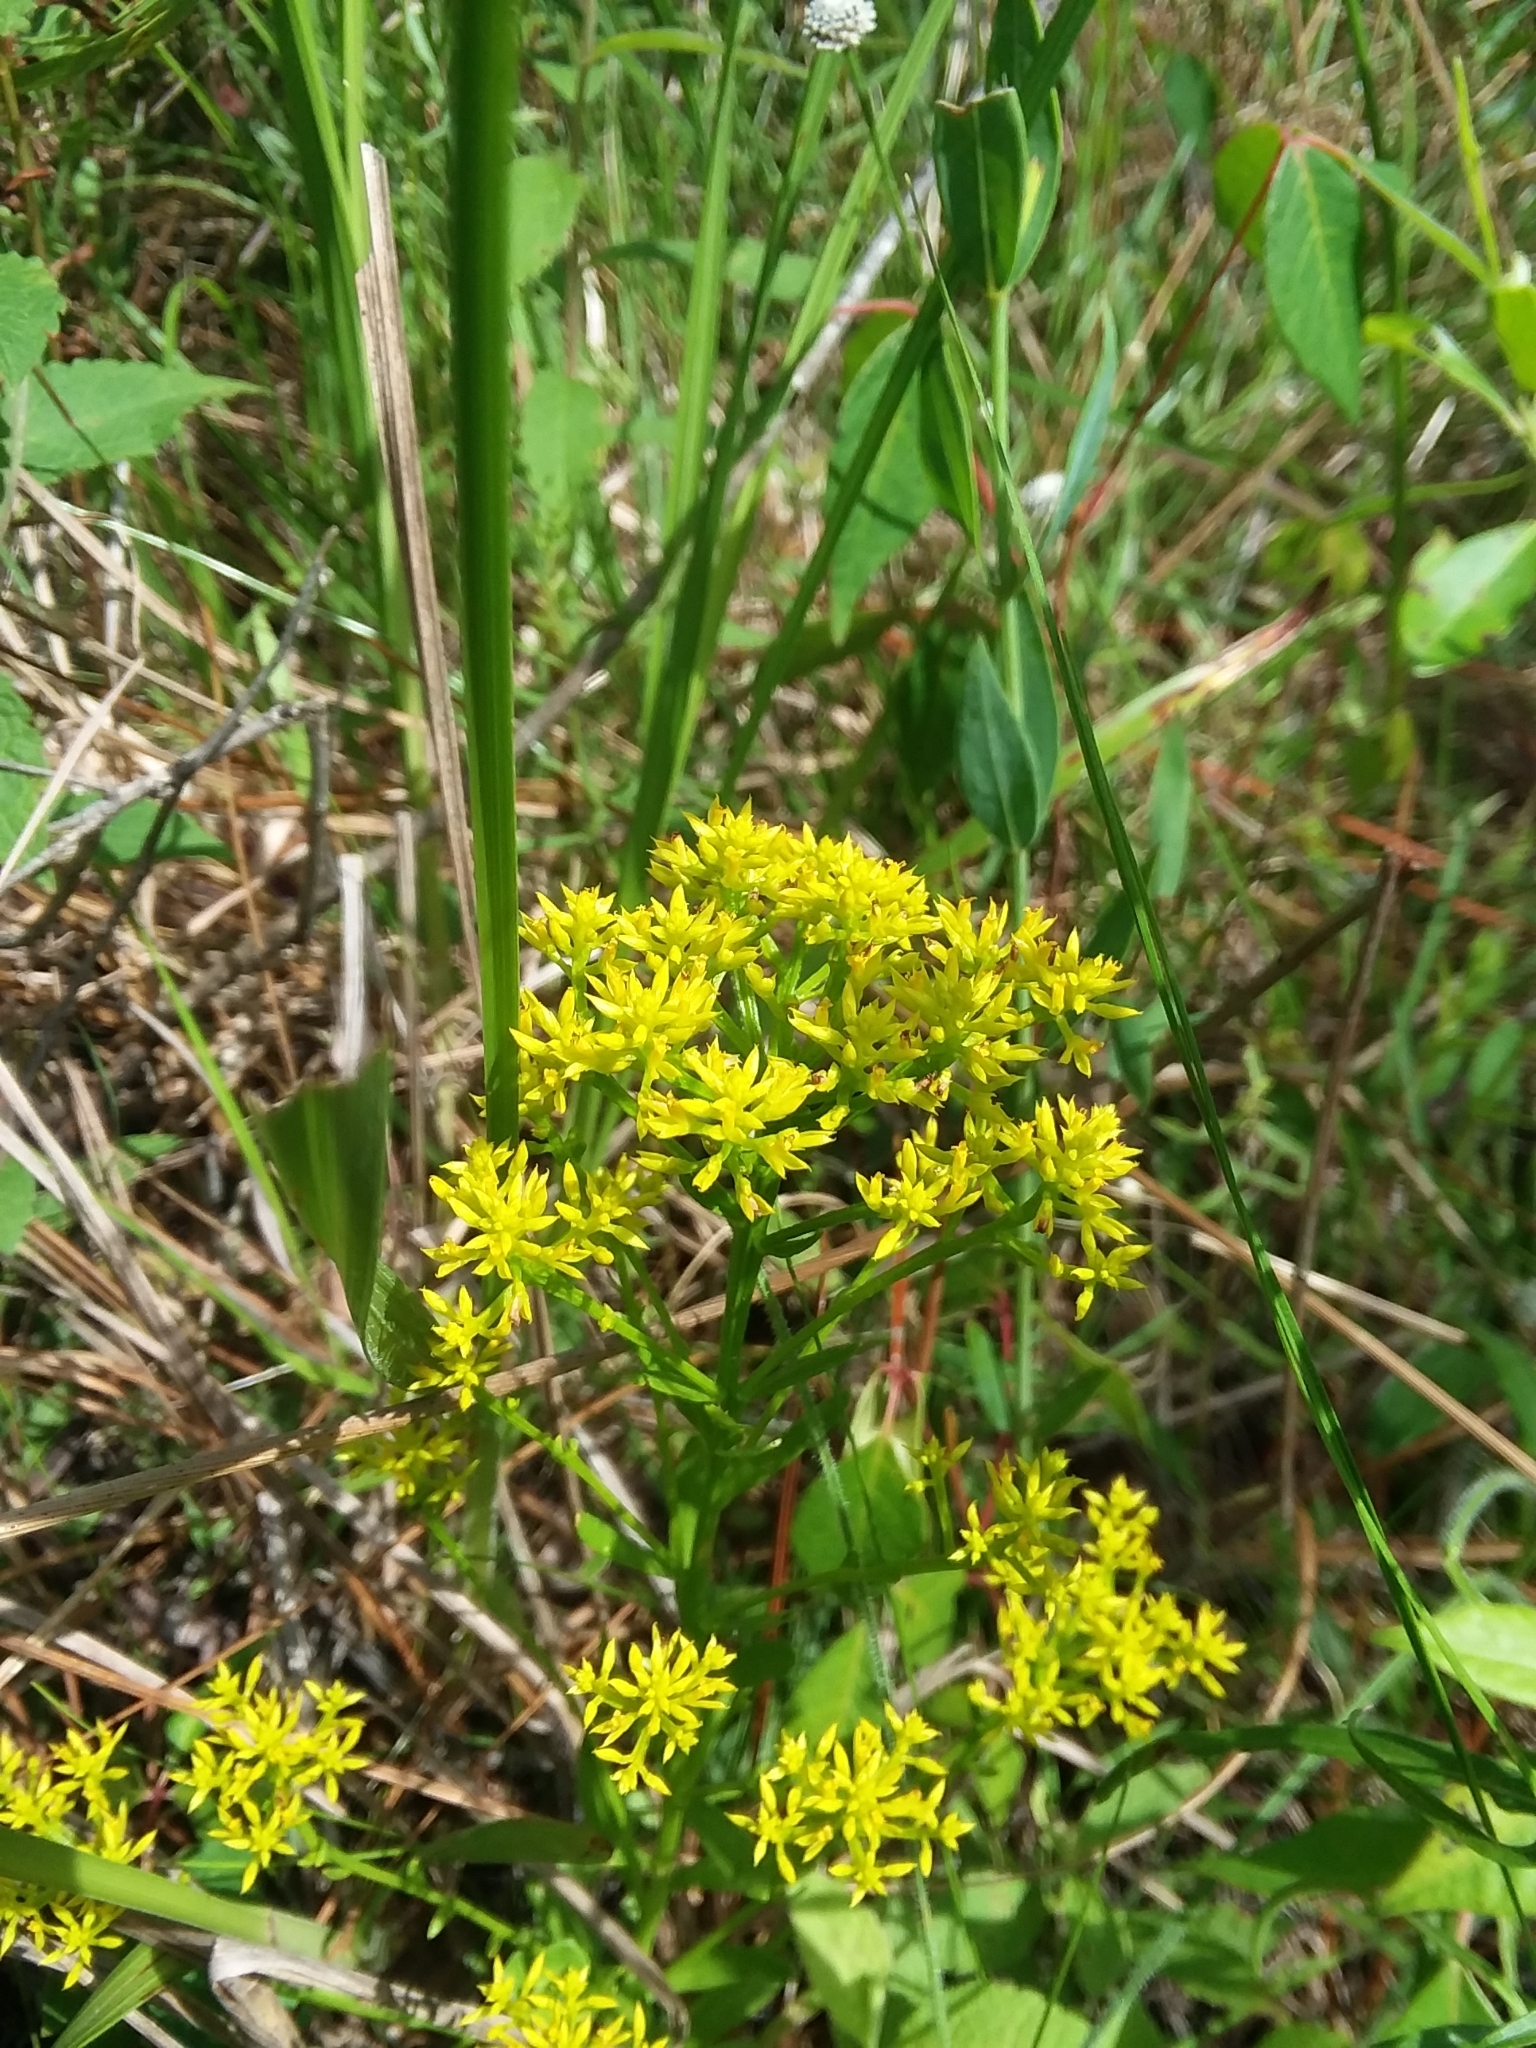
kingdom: Plantae
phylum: Tracheophyta
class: Magnoliopsida
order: Fabales
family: Polygalaceae
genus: Polygala
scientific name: Polygala ramosa
